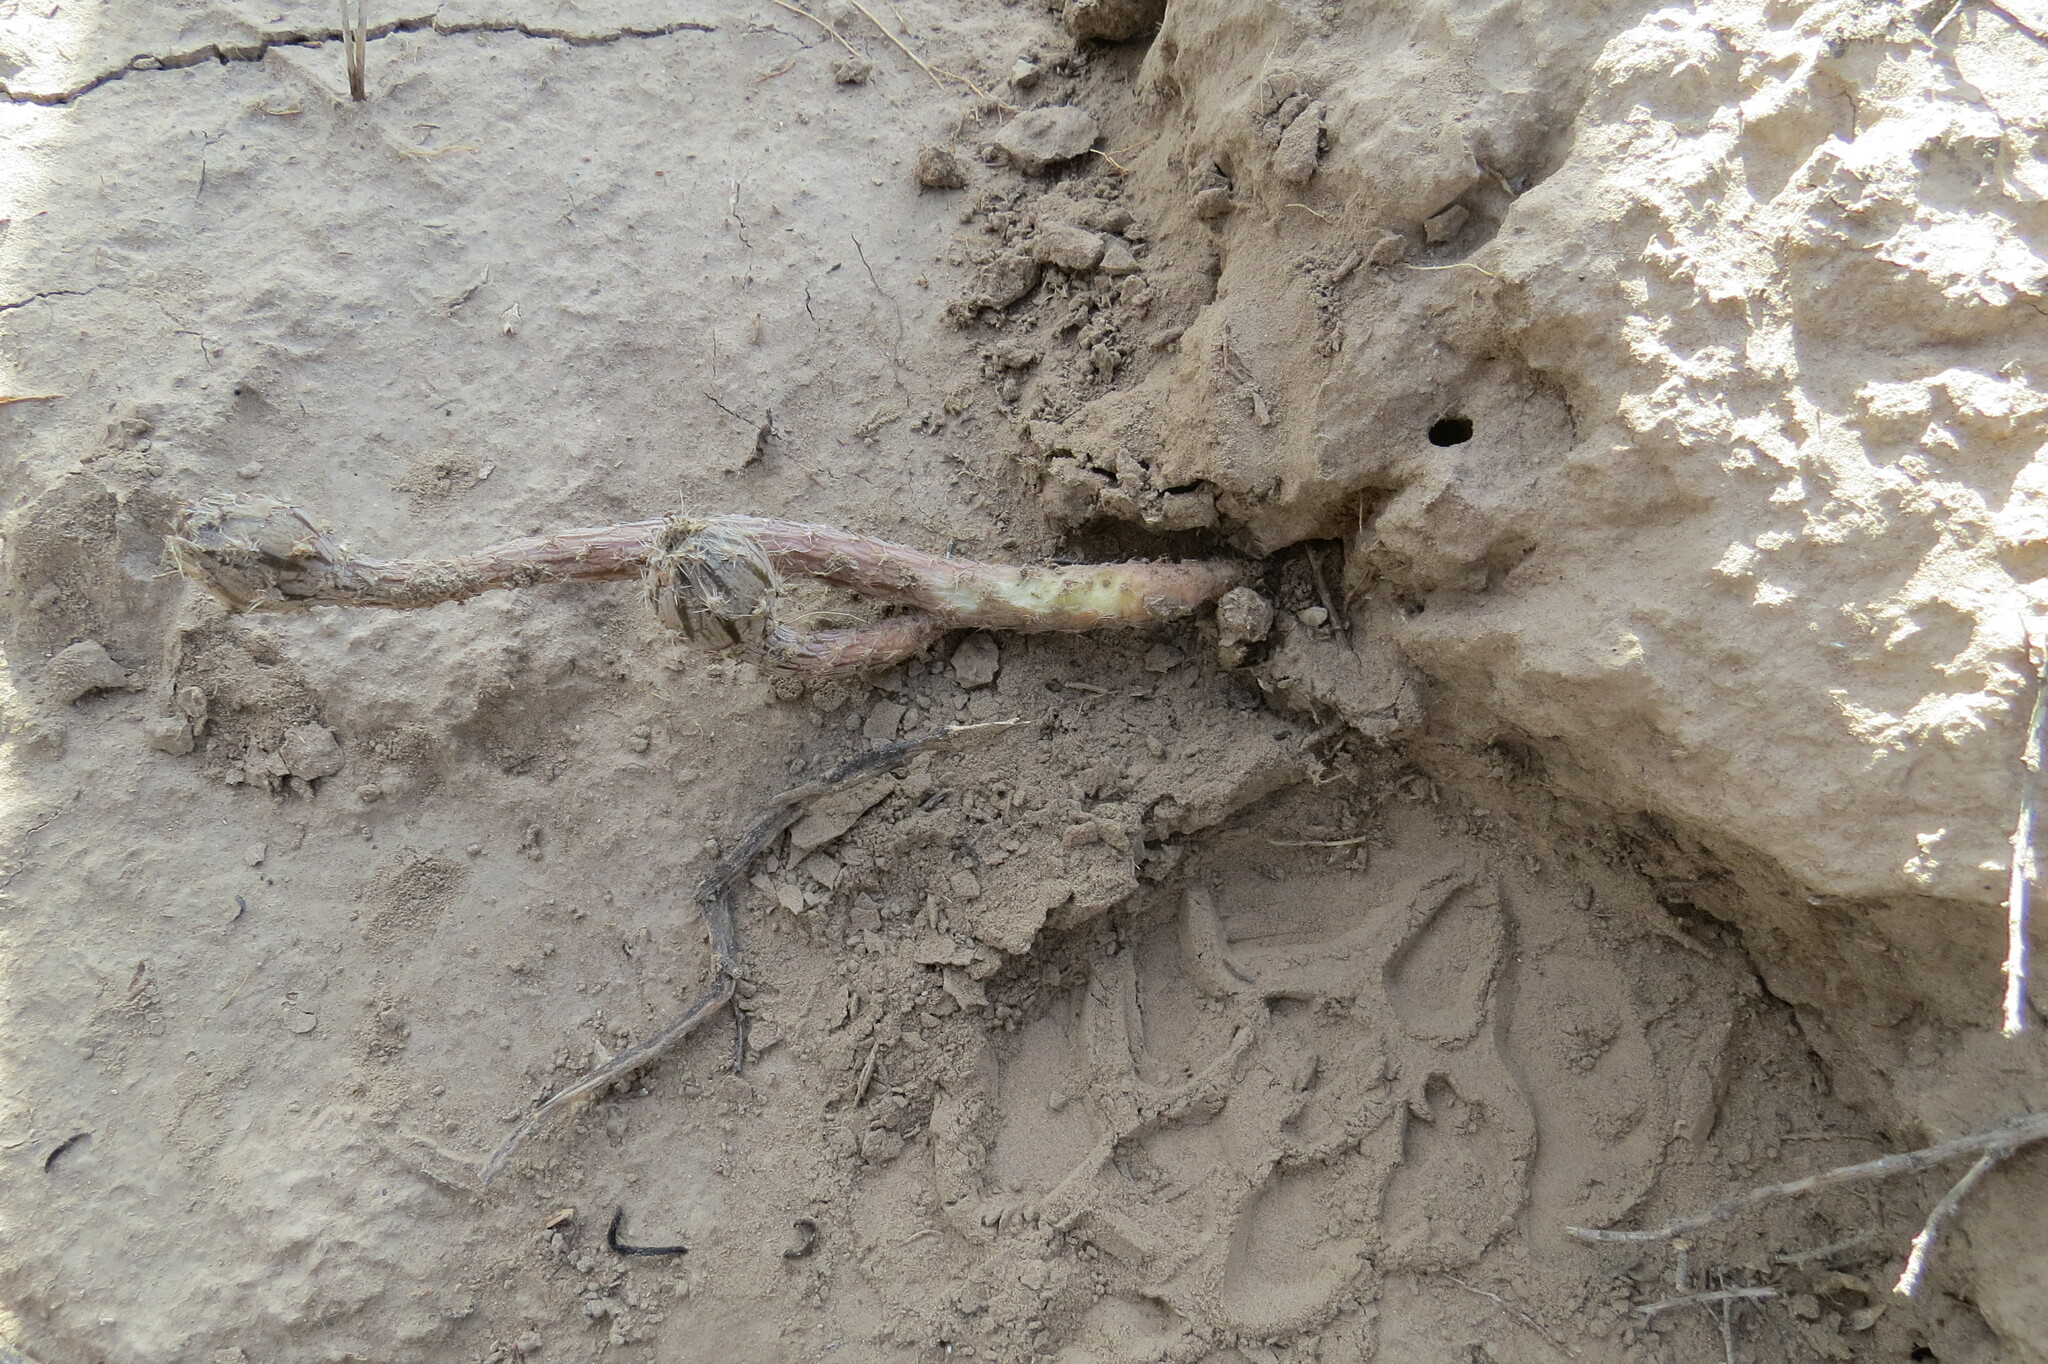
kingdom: Plantae
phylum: Tracheophyta
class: Magnoliopsida
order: Caryophyllales
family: Cactaceae
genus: Pterocactus
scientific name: Pterocactus tuberosus
